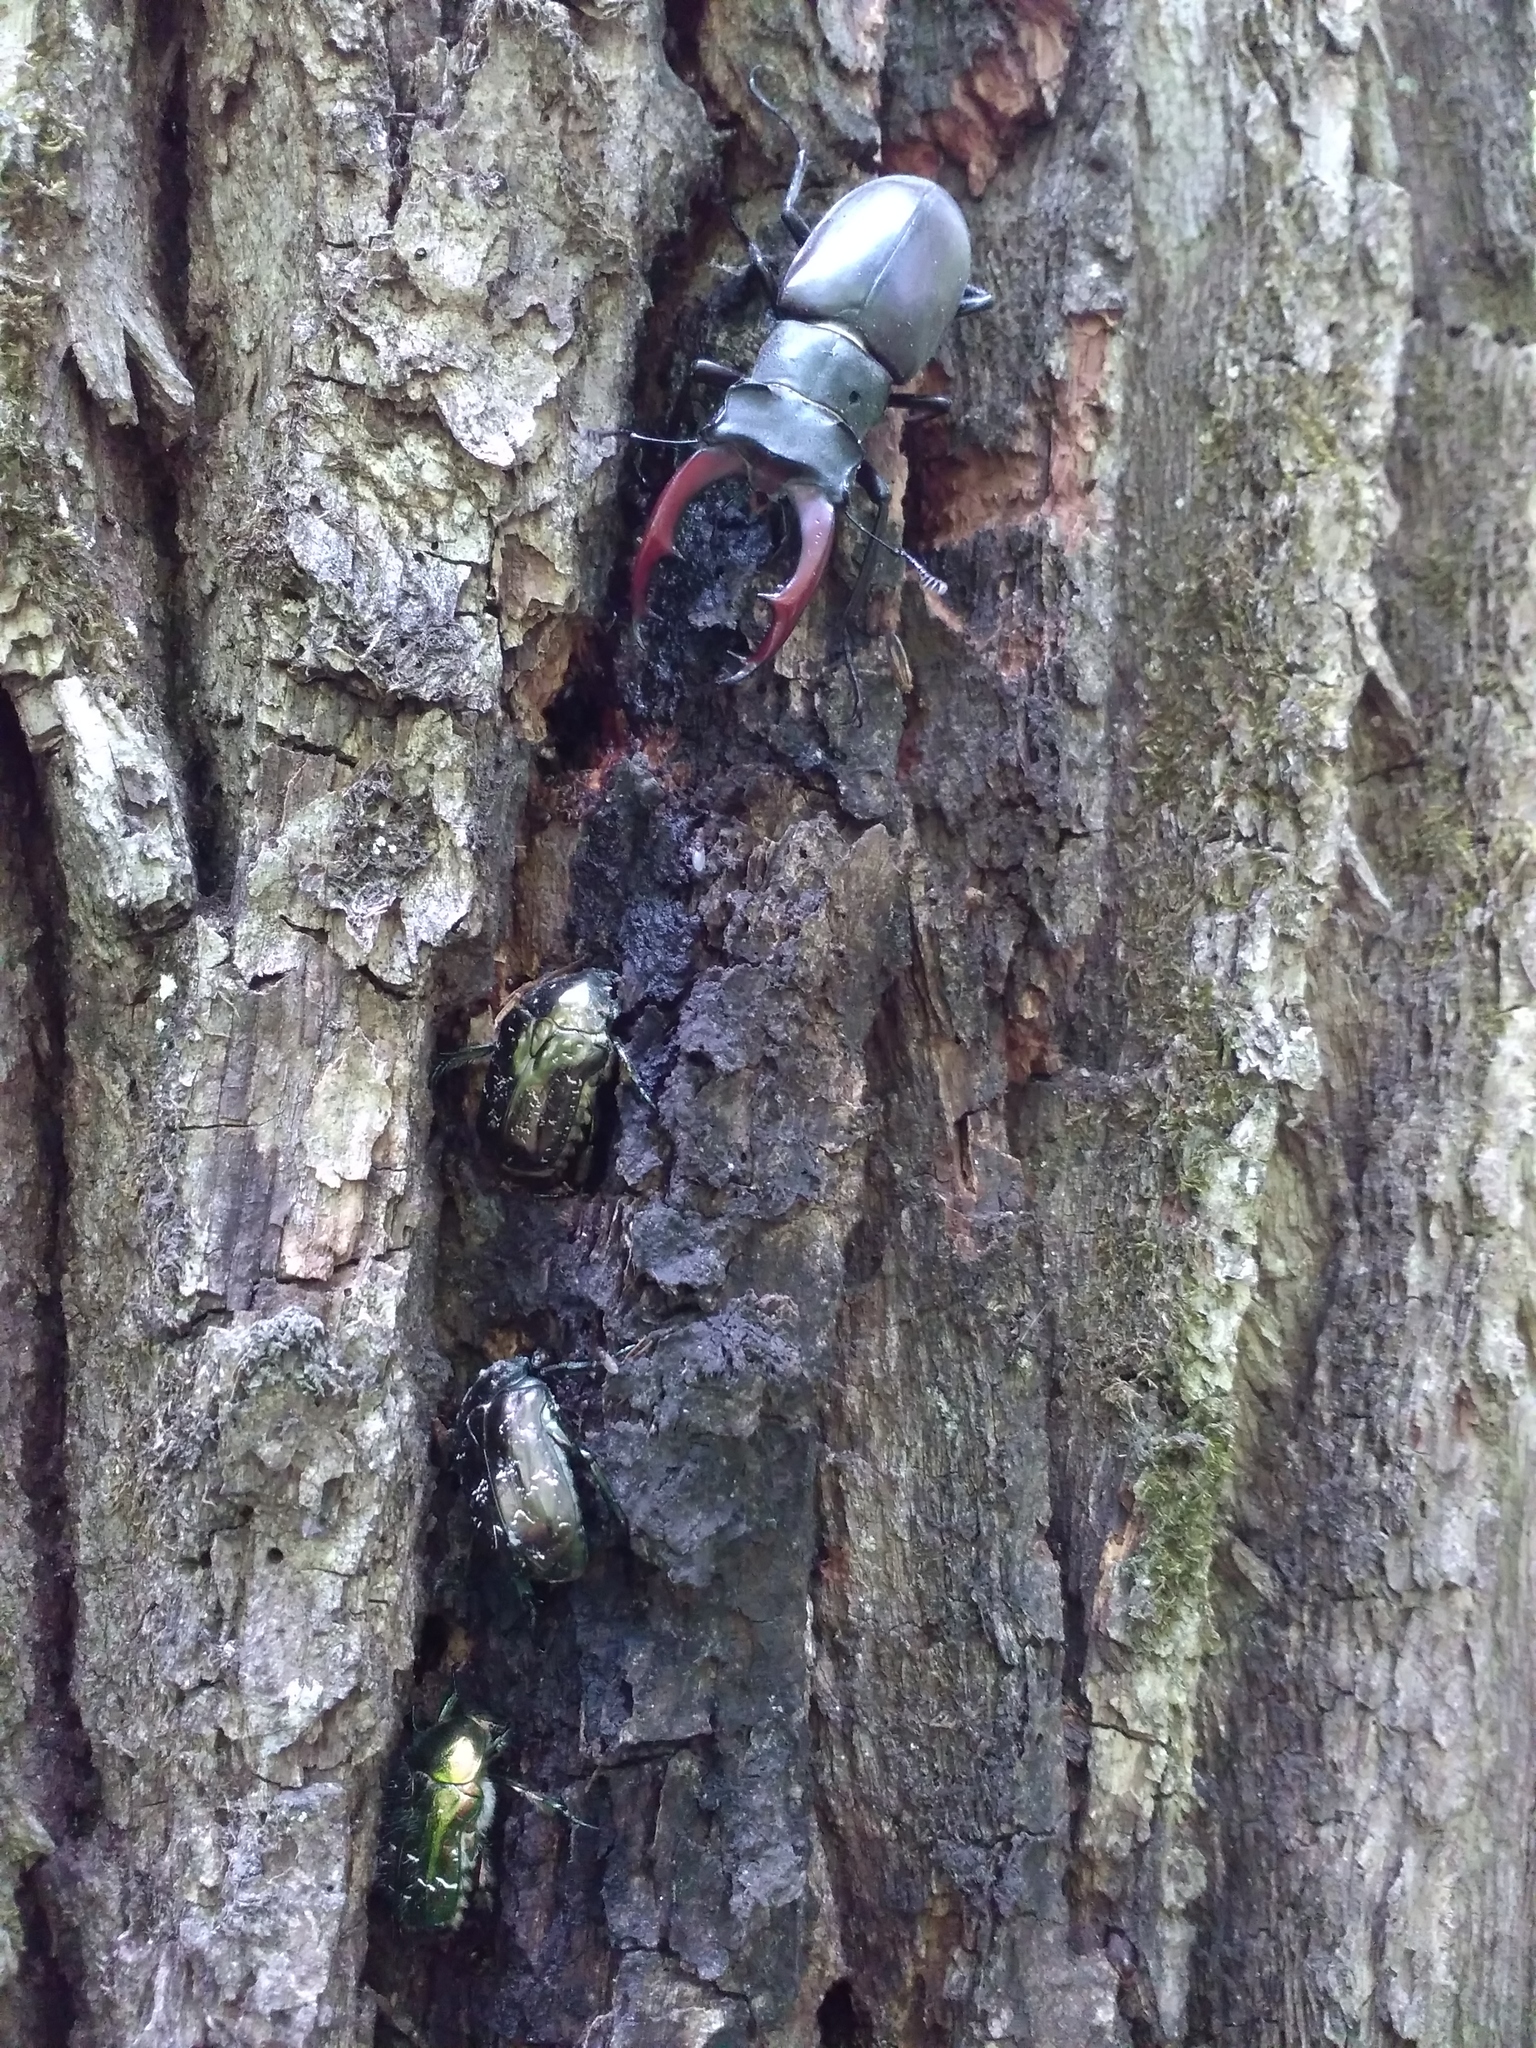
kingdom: Animalia
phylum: Arthropoda
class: Insecta
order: Coleoptera
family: Lucanidae
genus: Lucanus
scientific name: Lucanus cervus
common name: Stag beetle
